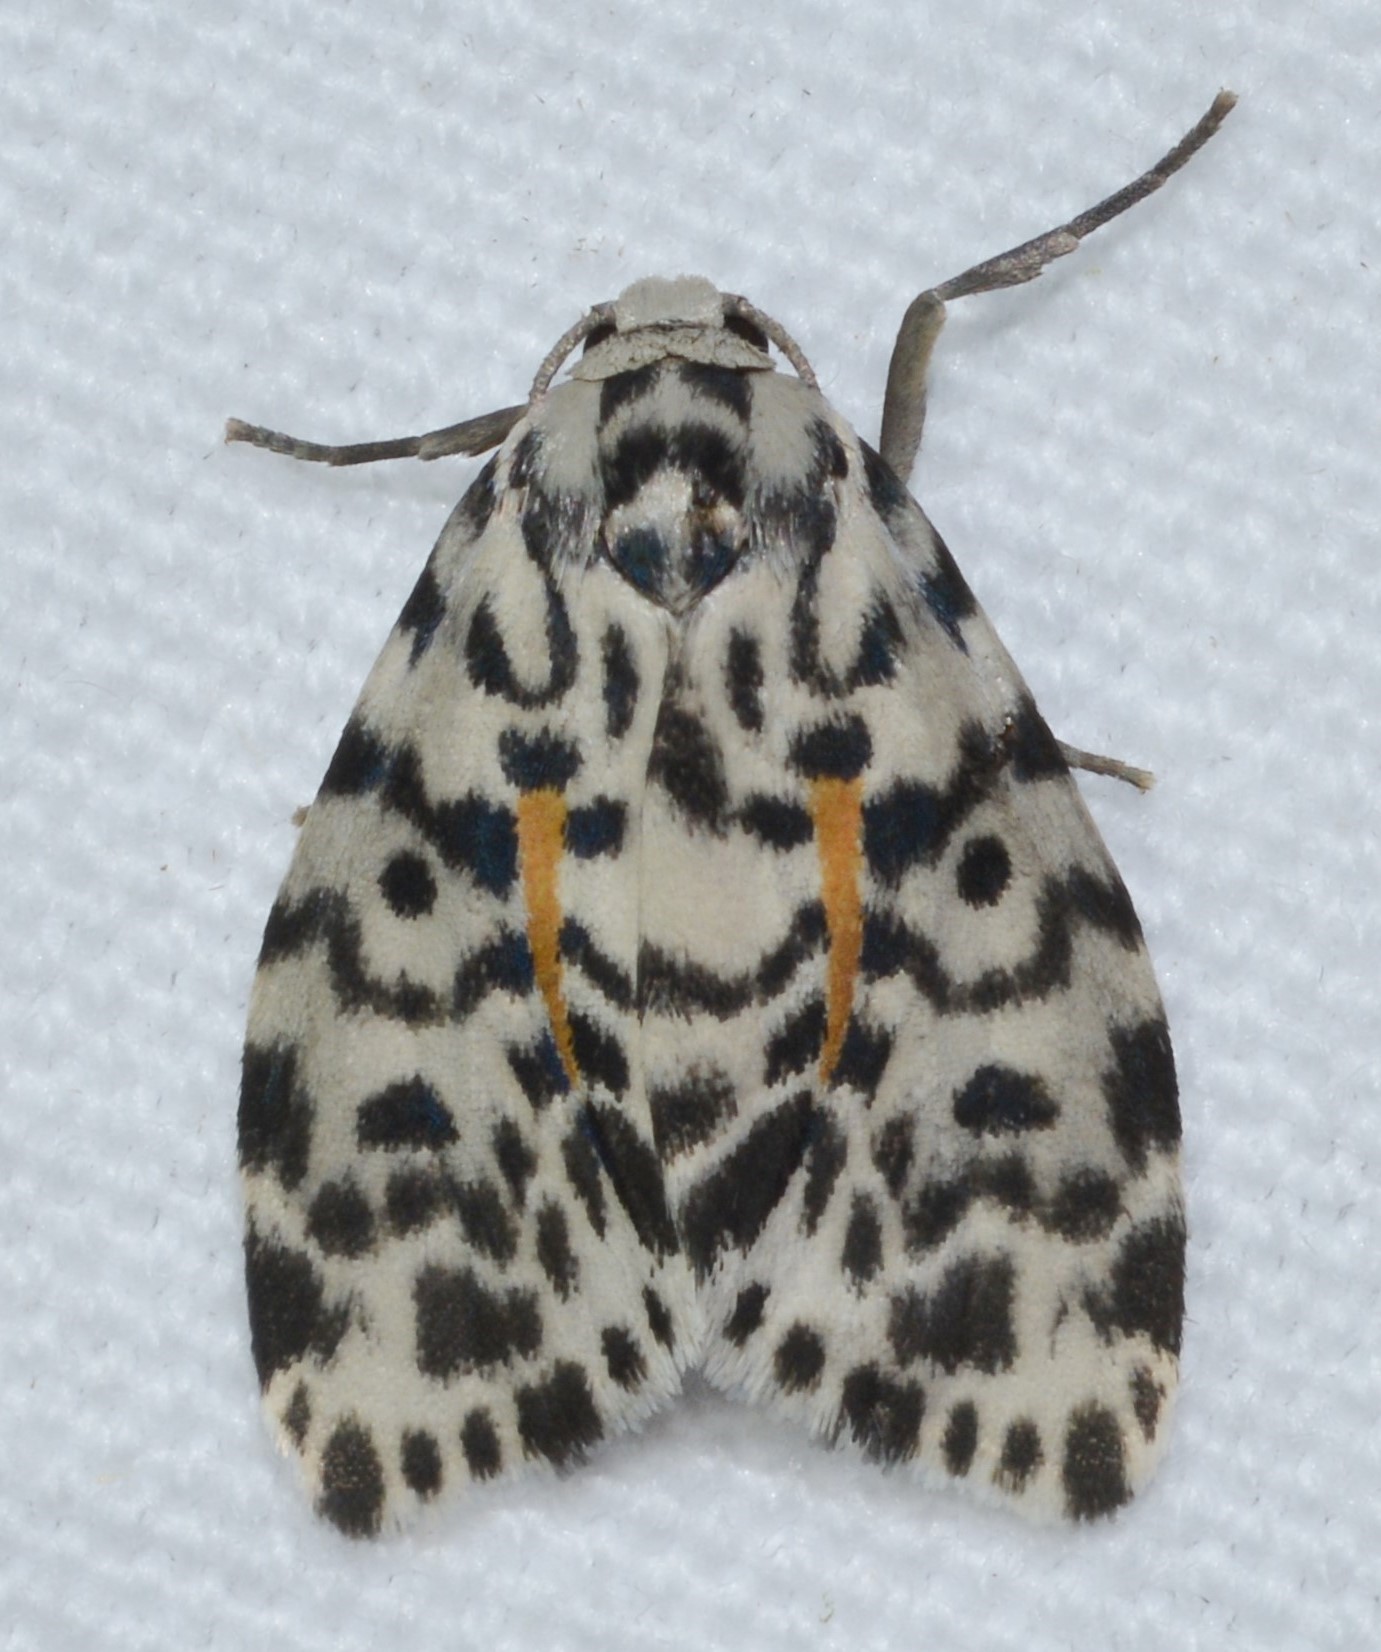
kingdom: Animalia
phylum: Arthropoda
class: Insecta
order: Lepidoptera
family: Erebidae
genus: Clemensia
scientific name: Clemensia leopardina
